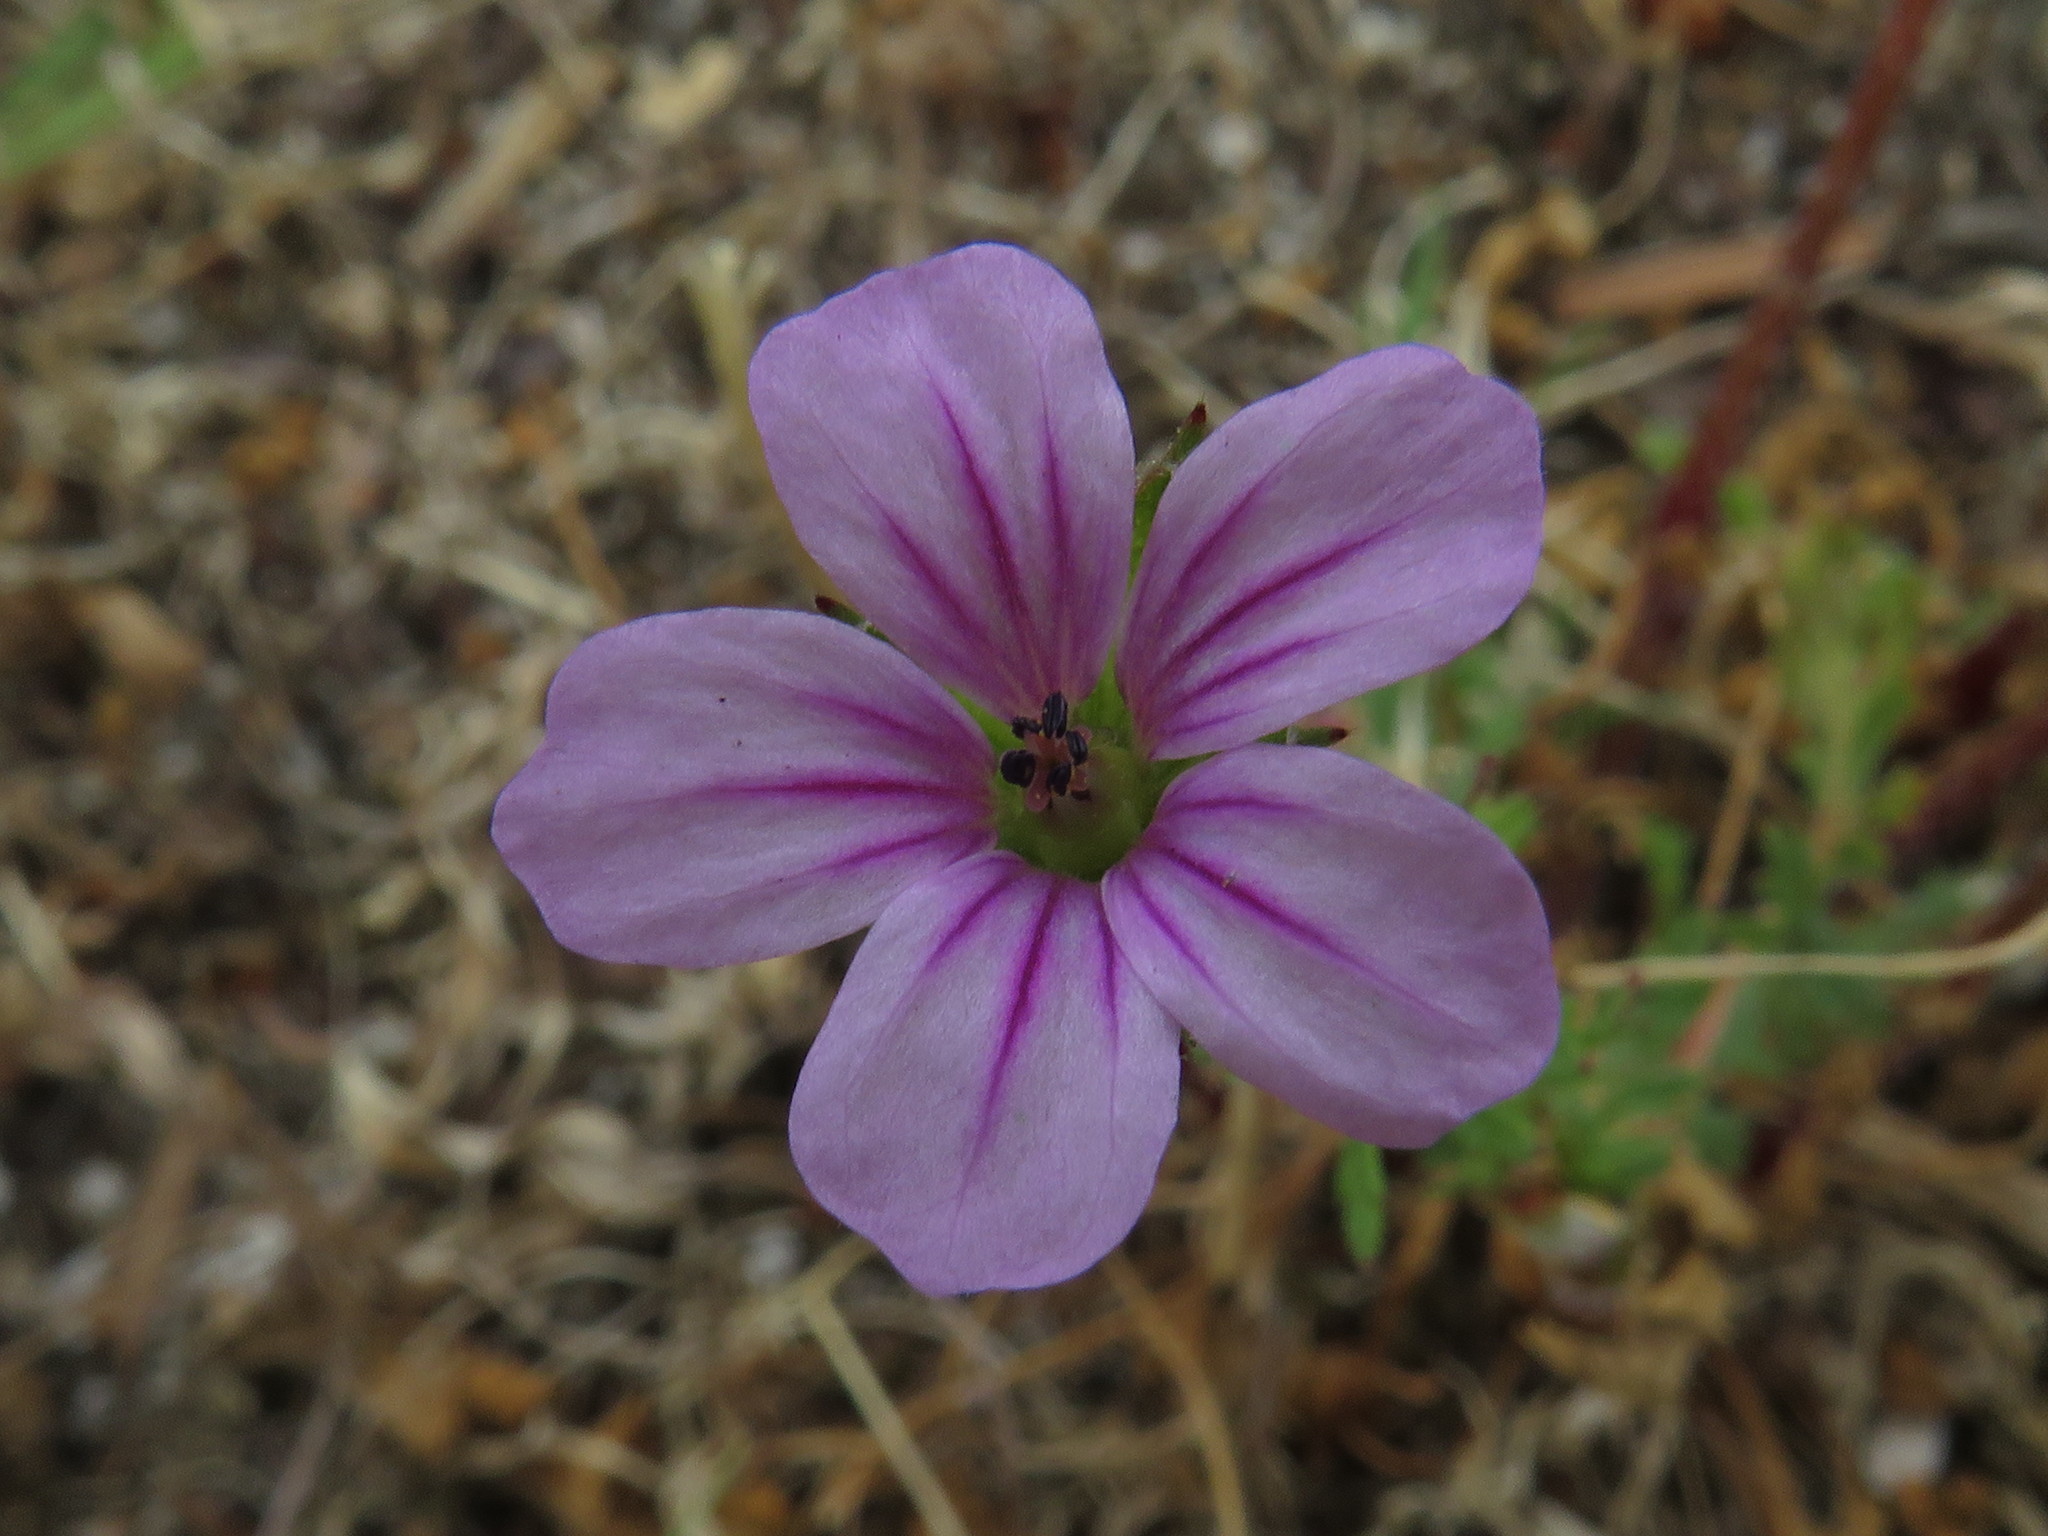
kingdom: Plantae
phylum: Tracheophyta
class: Magnoliopsida
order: Geraniales
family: Geraniaceae
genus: Erodium
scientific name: Erodium botrys
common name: Mediterranean stork's-bill
